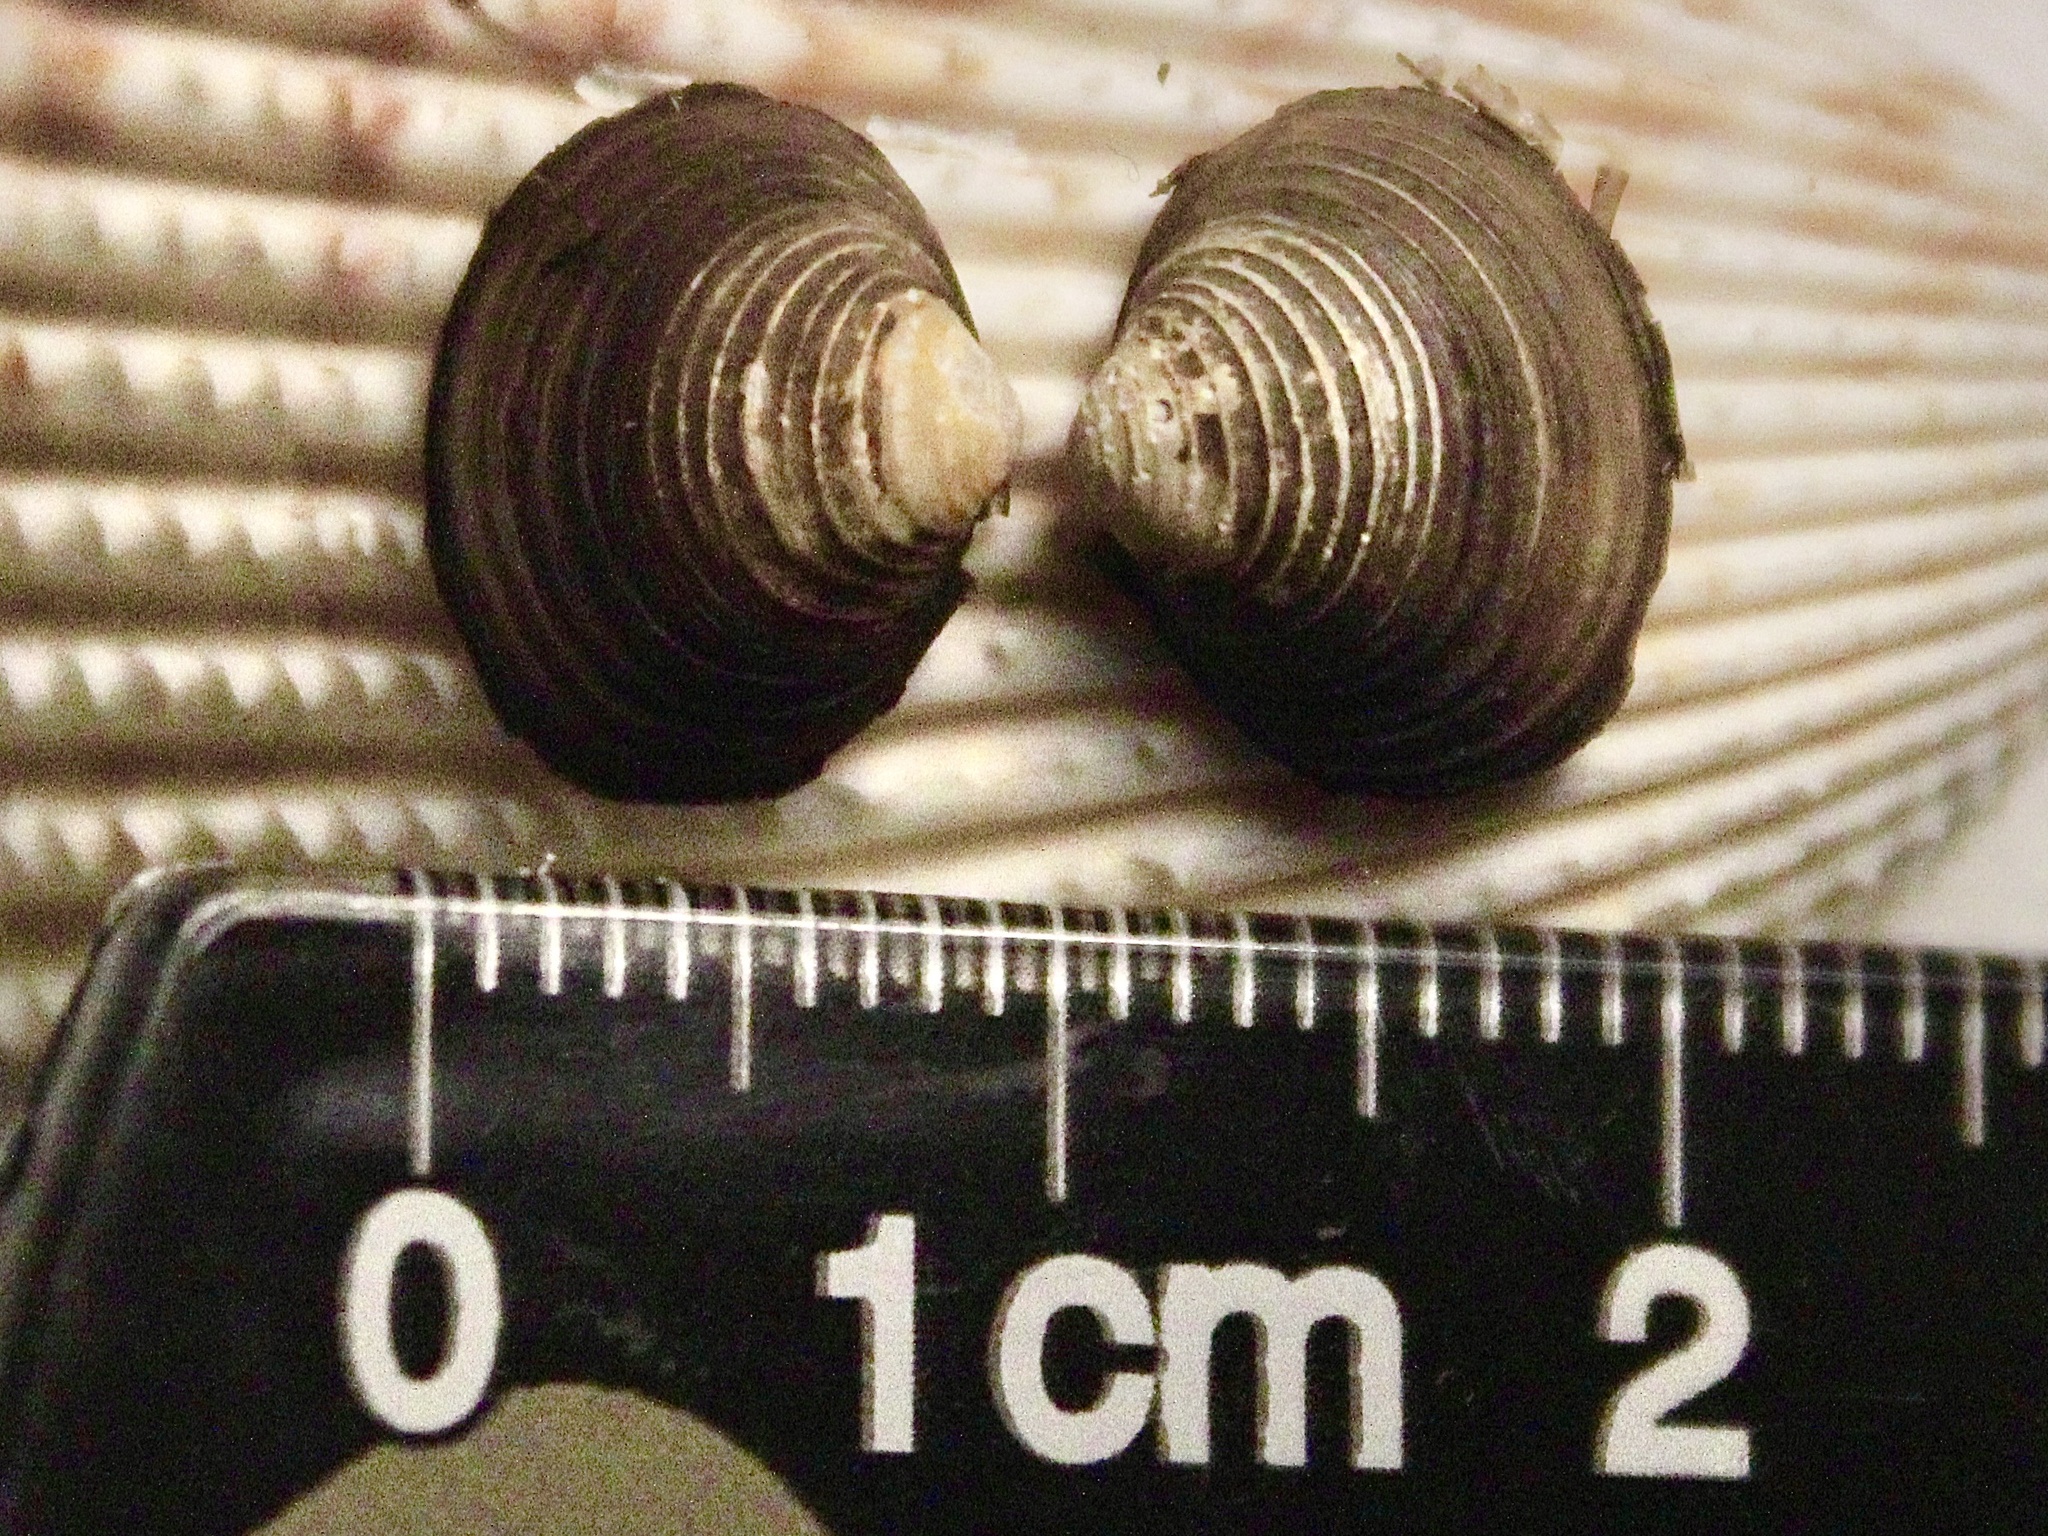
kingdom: Animalia
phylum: Mollusca
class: Bivalvia
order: Venerida
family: Cyrenidae
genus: Corbicula
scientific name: Corbicula fluminea
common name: Asian clam
